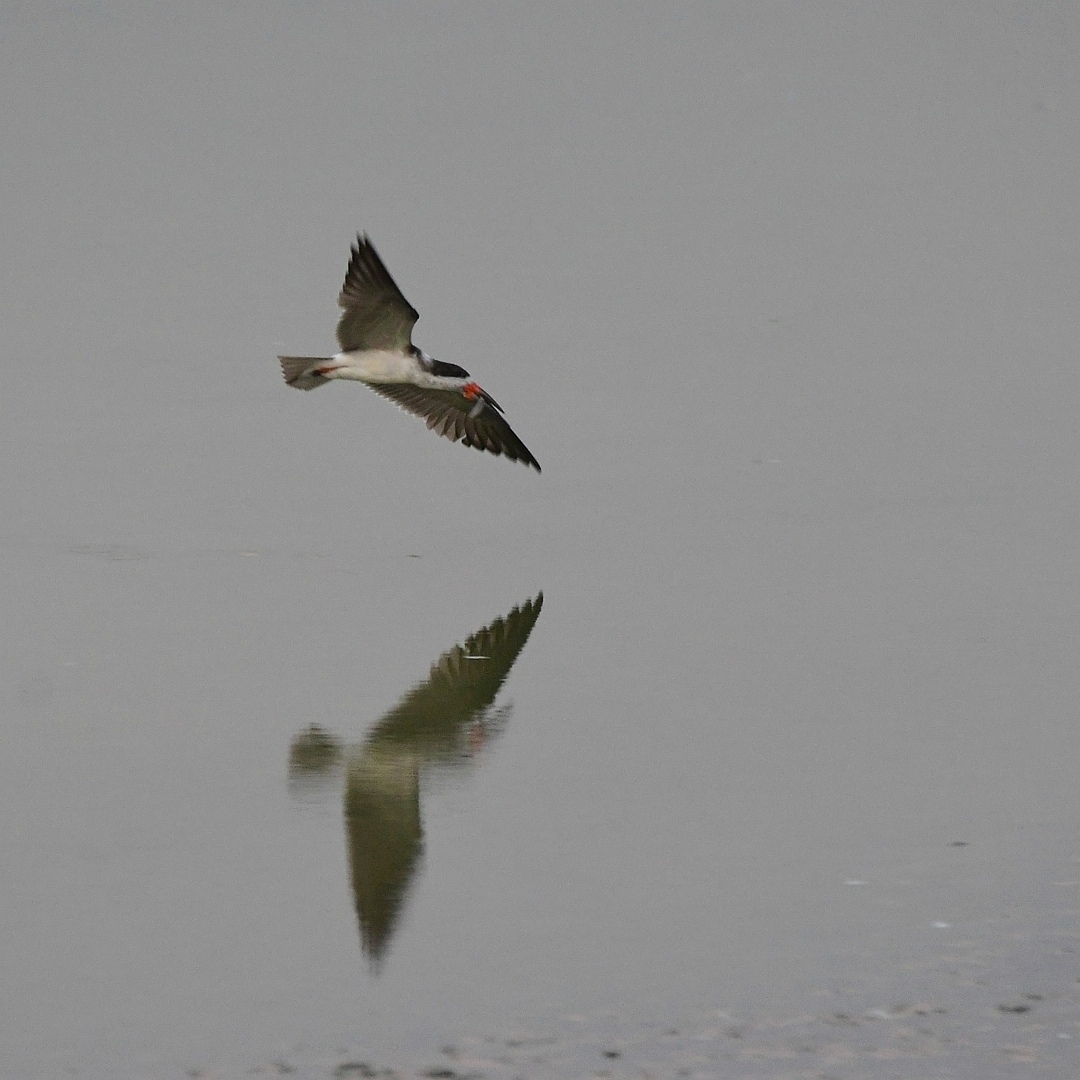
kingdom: Animalia
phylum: Chordata
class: Aves
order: Charadriiformes
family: Laridae
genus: Rynchops
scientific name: Rynchops niger
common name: Black skimmer
